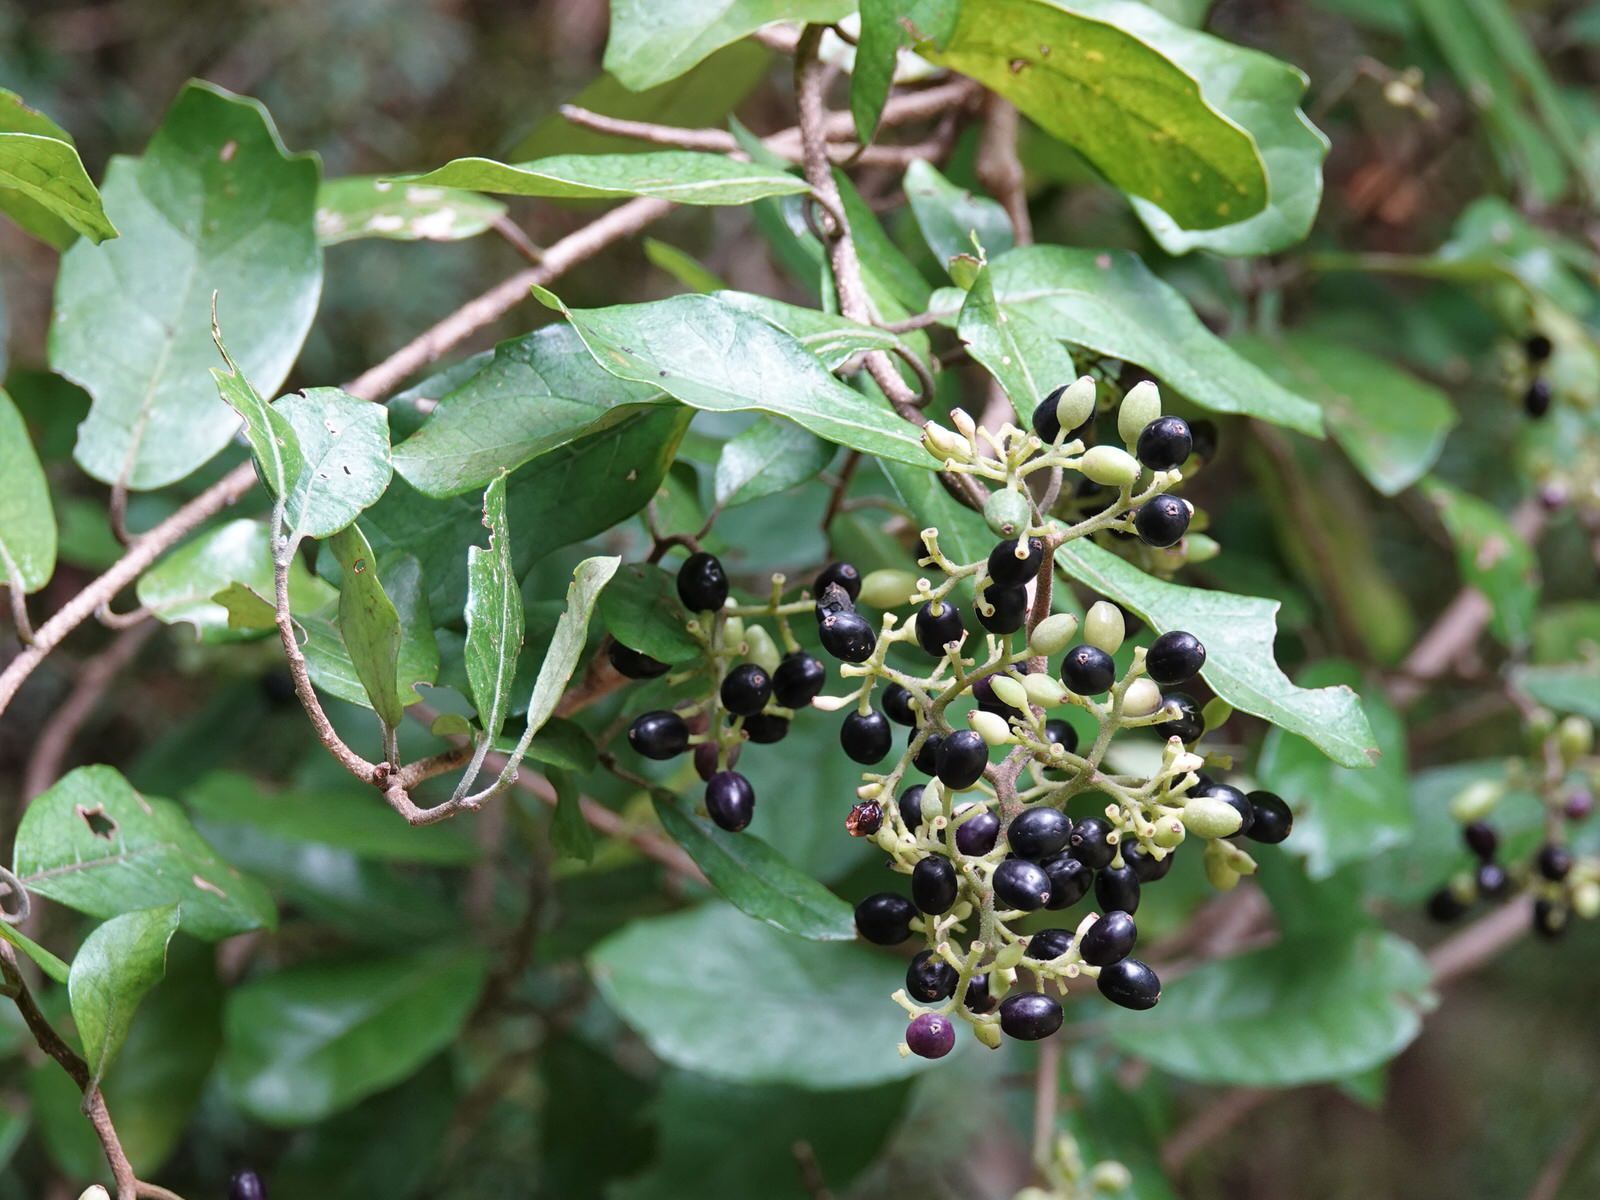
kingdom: Plantae
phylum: Tracheophyta
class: Magnoliopsida
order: Apiales
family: Pennantiaceae
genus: Pennantia
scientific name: Pennantia corymbosa
